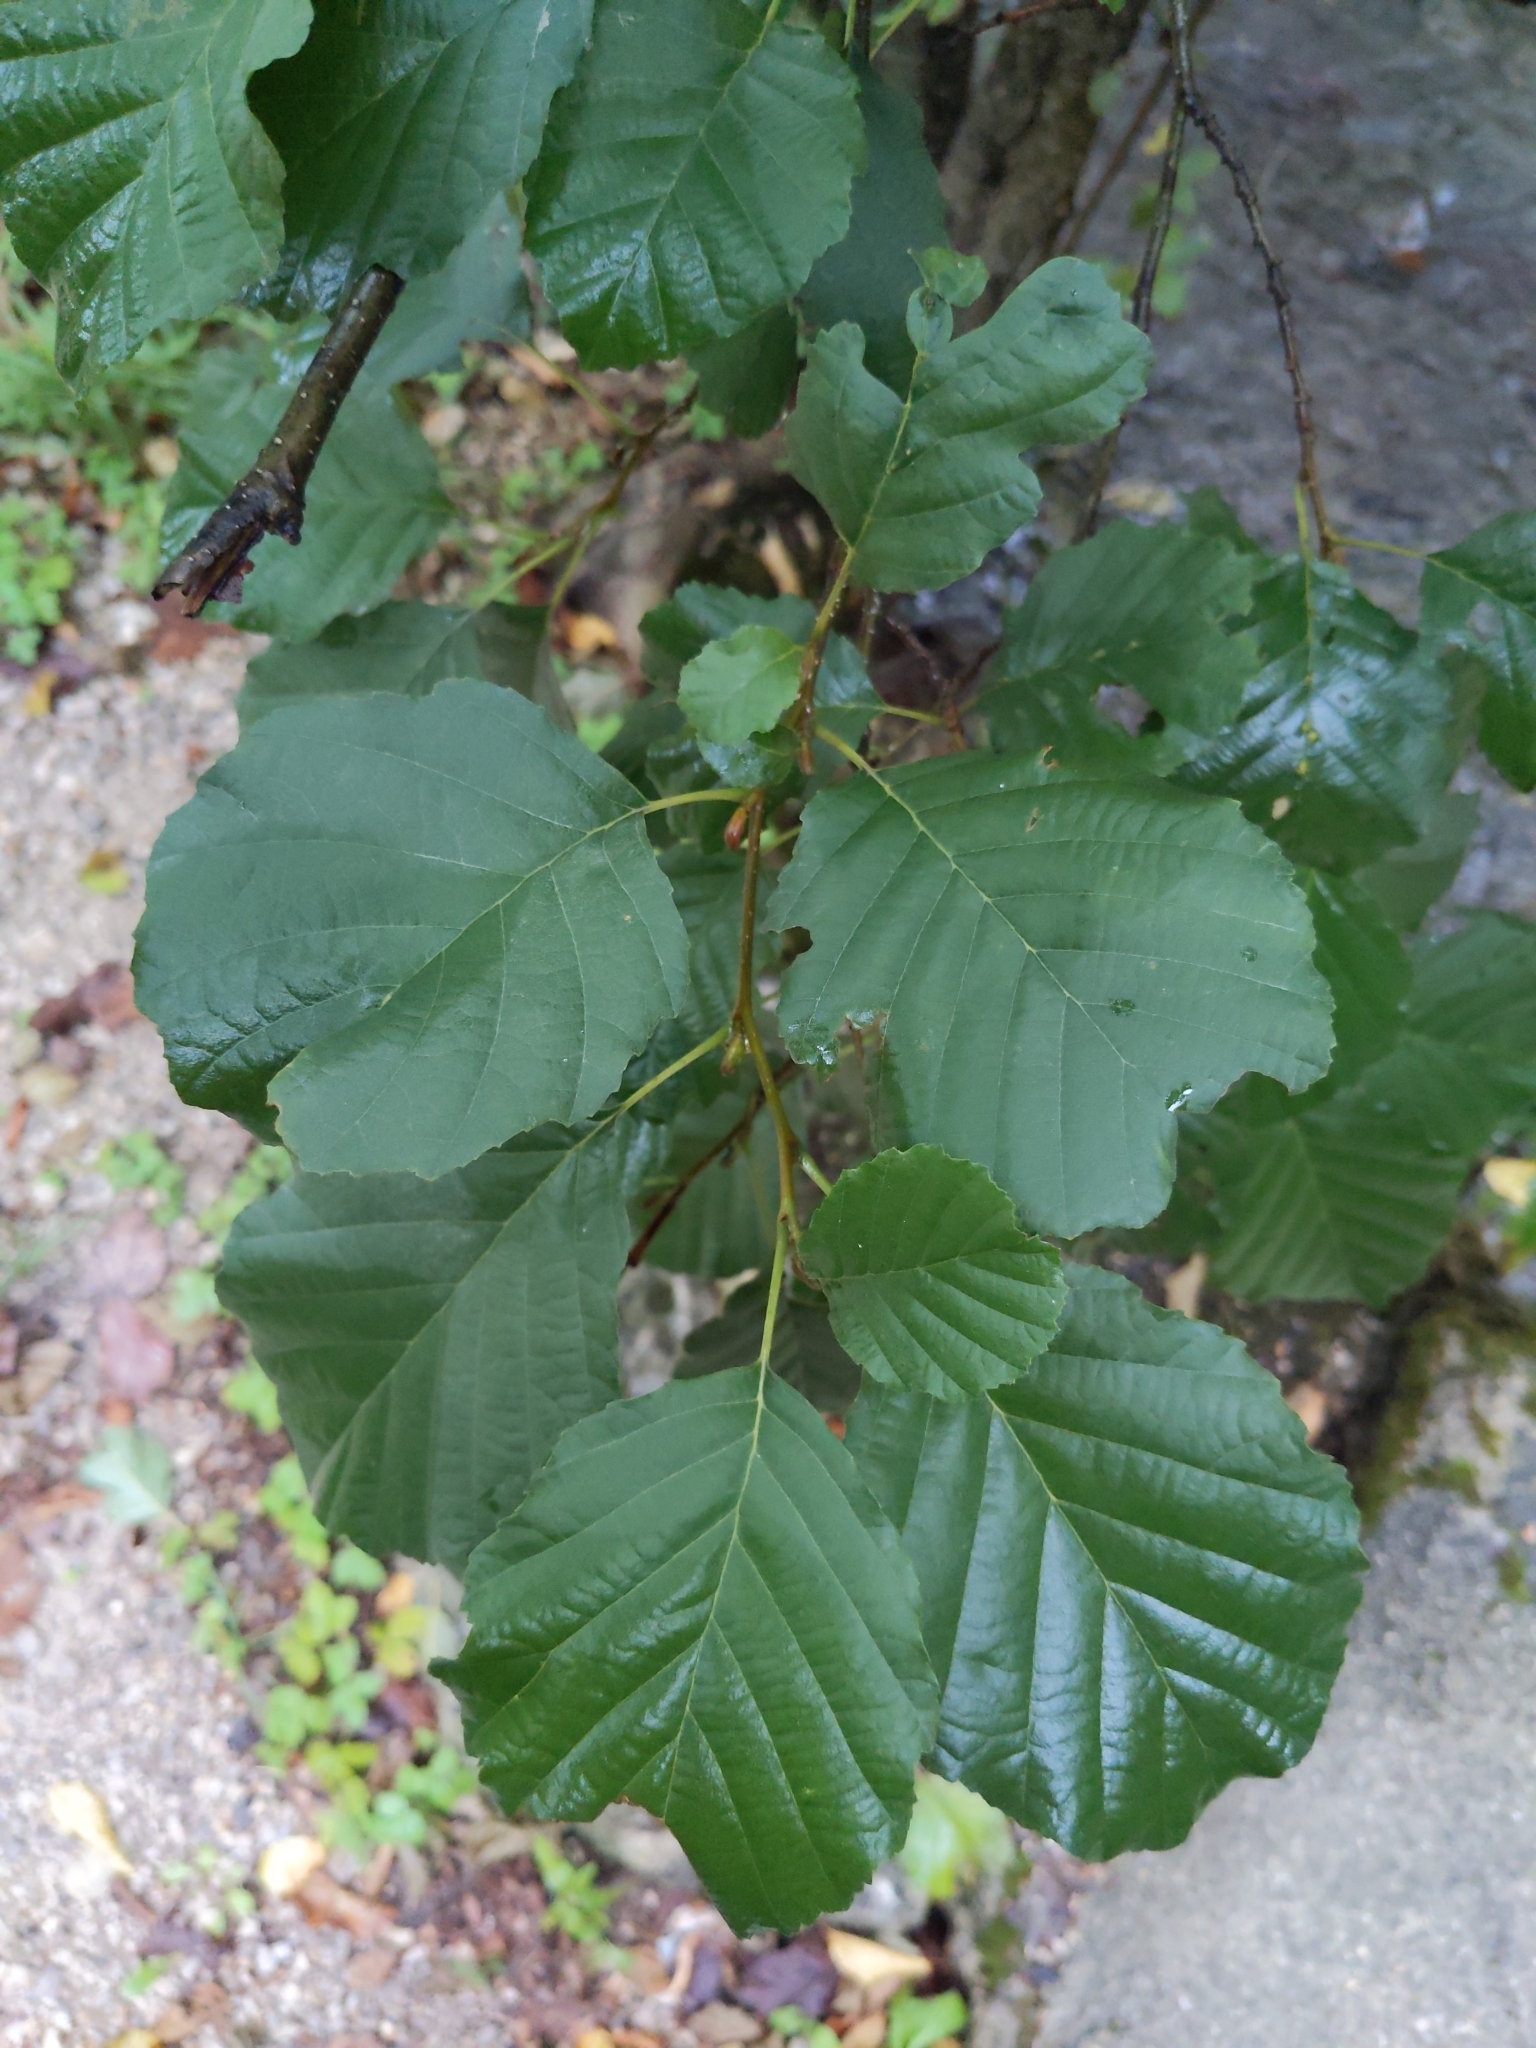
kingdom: Plantae
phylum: Tracheophyta
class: Magnoliopsida
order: Fagales
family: Betulaceae
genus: Alnus
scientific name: Alnus glutinosa
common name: Black alder
